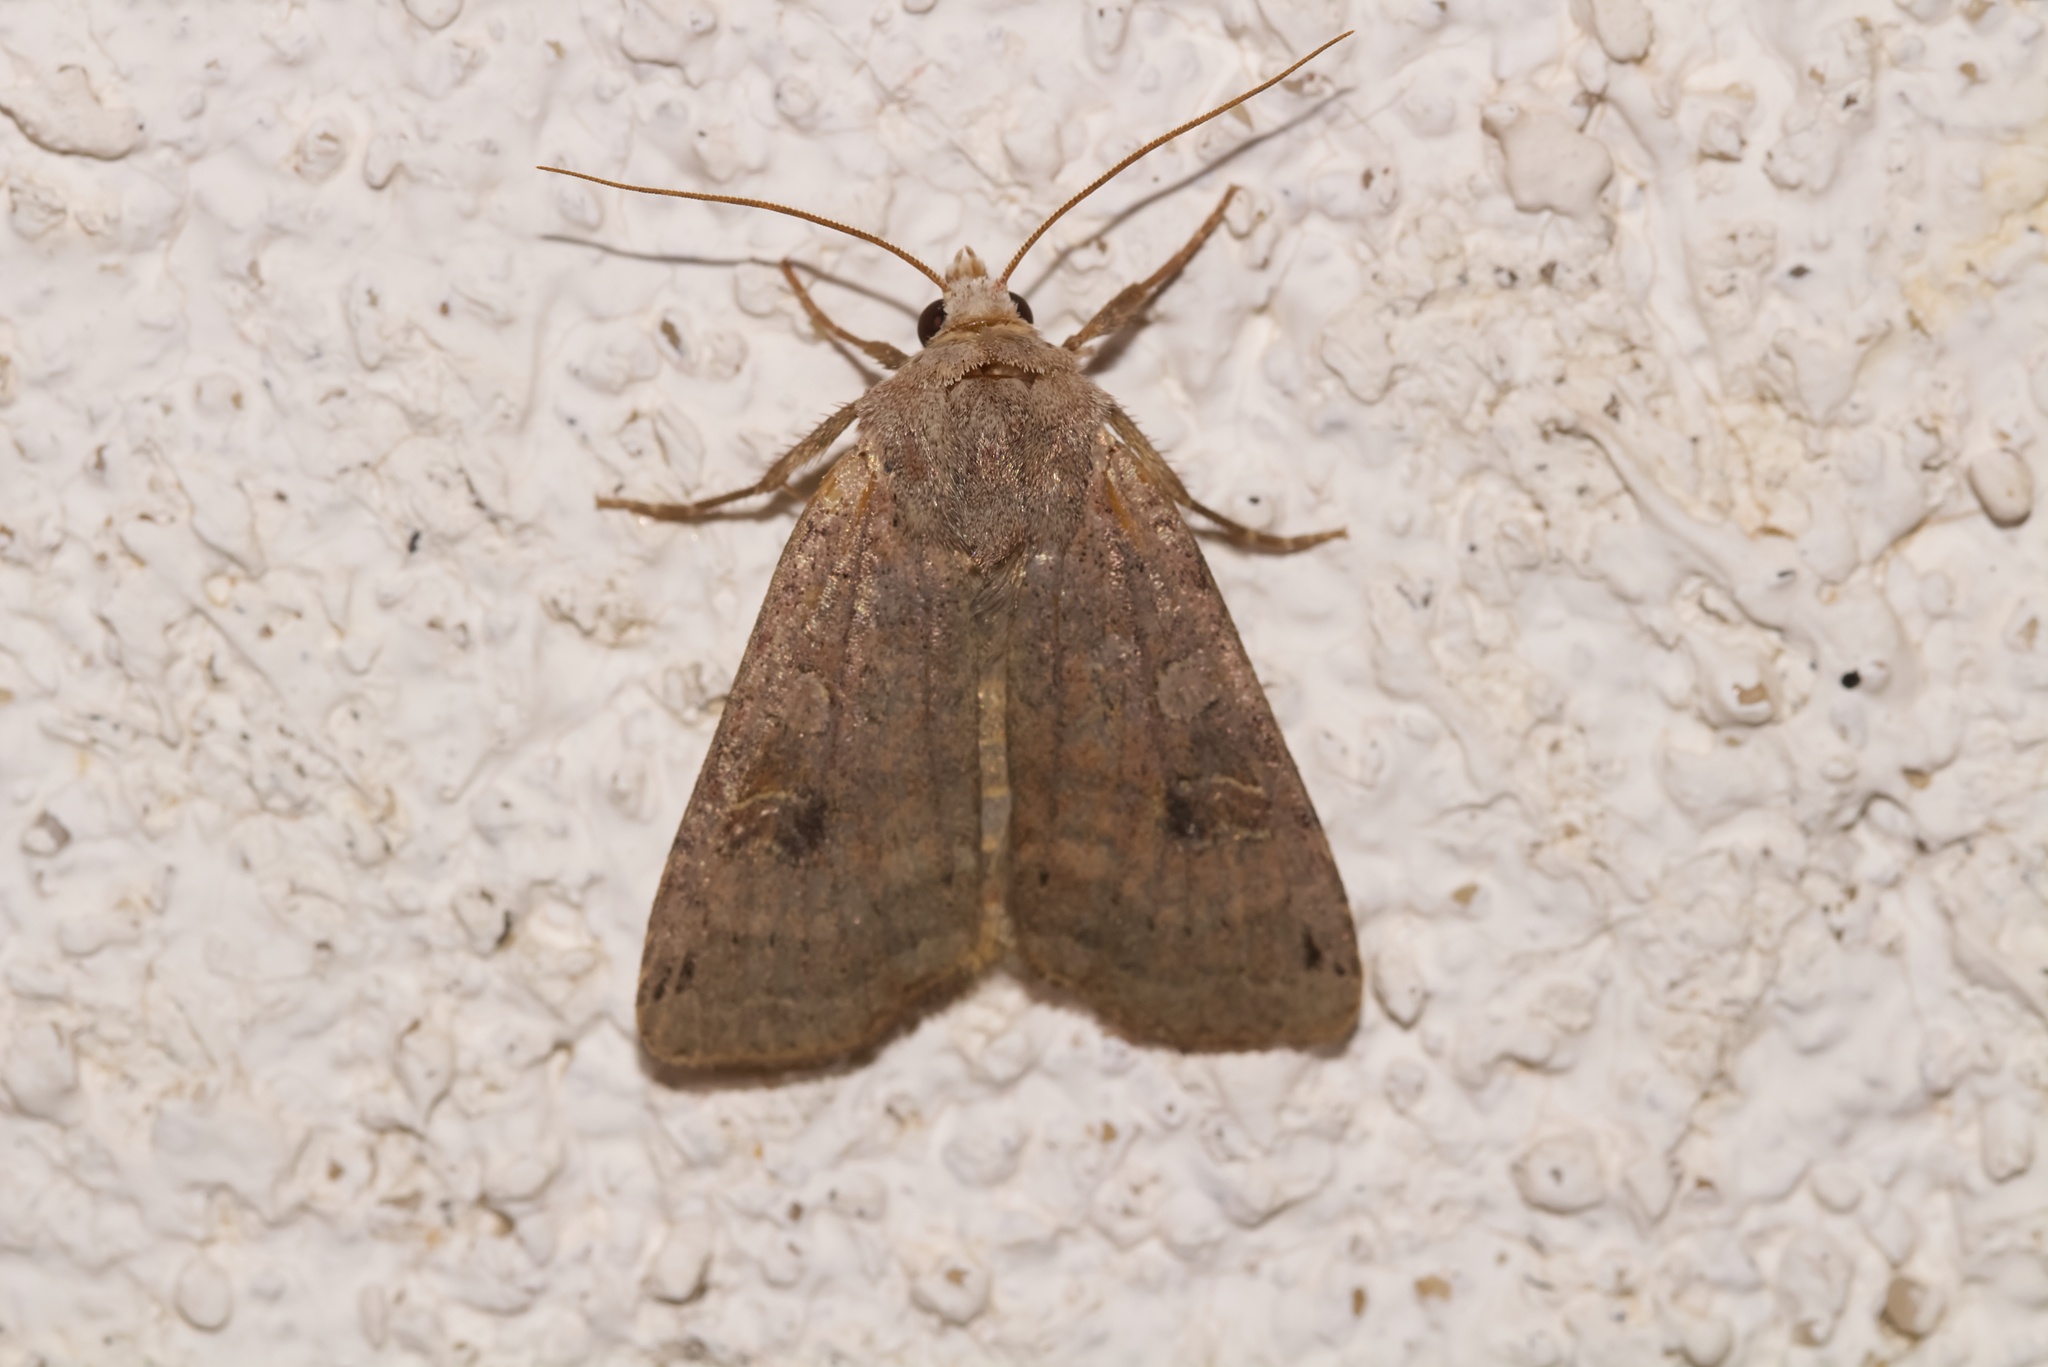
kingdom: Animalia
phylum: Arthropoda
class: Insecta
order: Lepidoptera
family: Noctuidae
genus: Xestia
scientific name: Xestia baja
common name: Dotted clay
